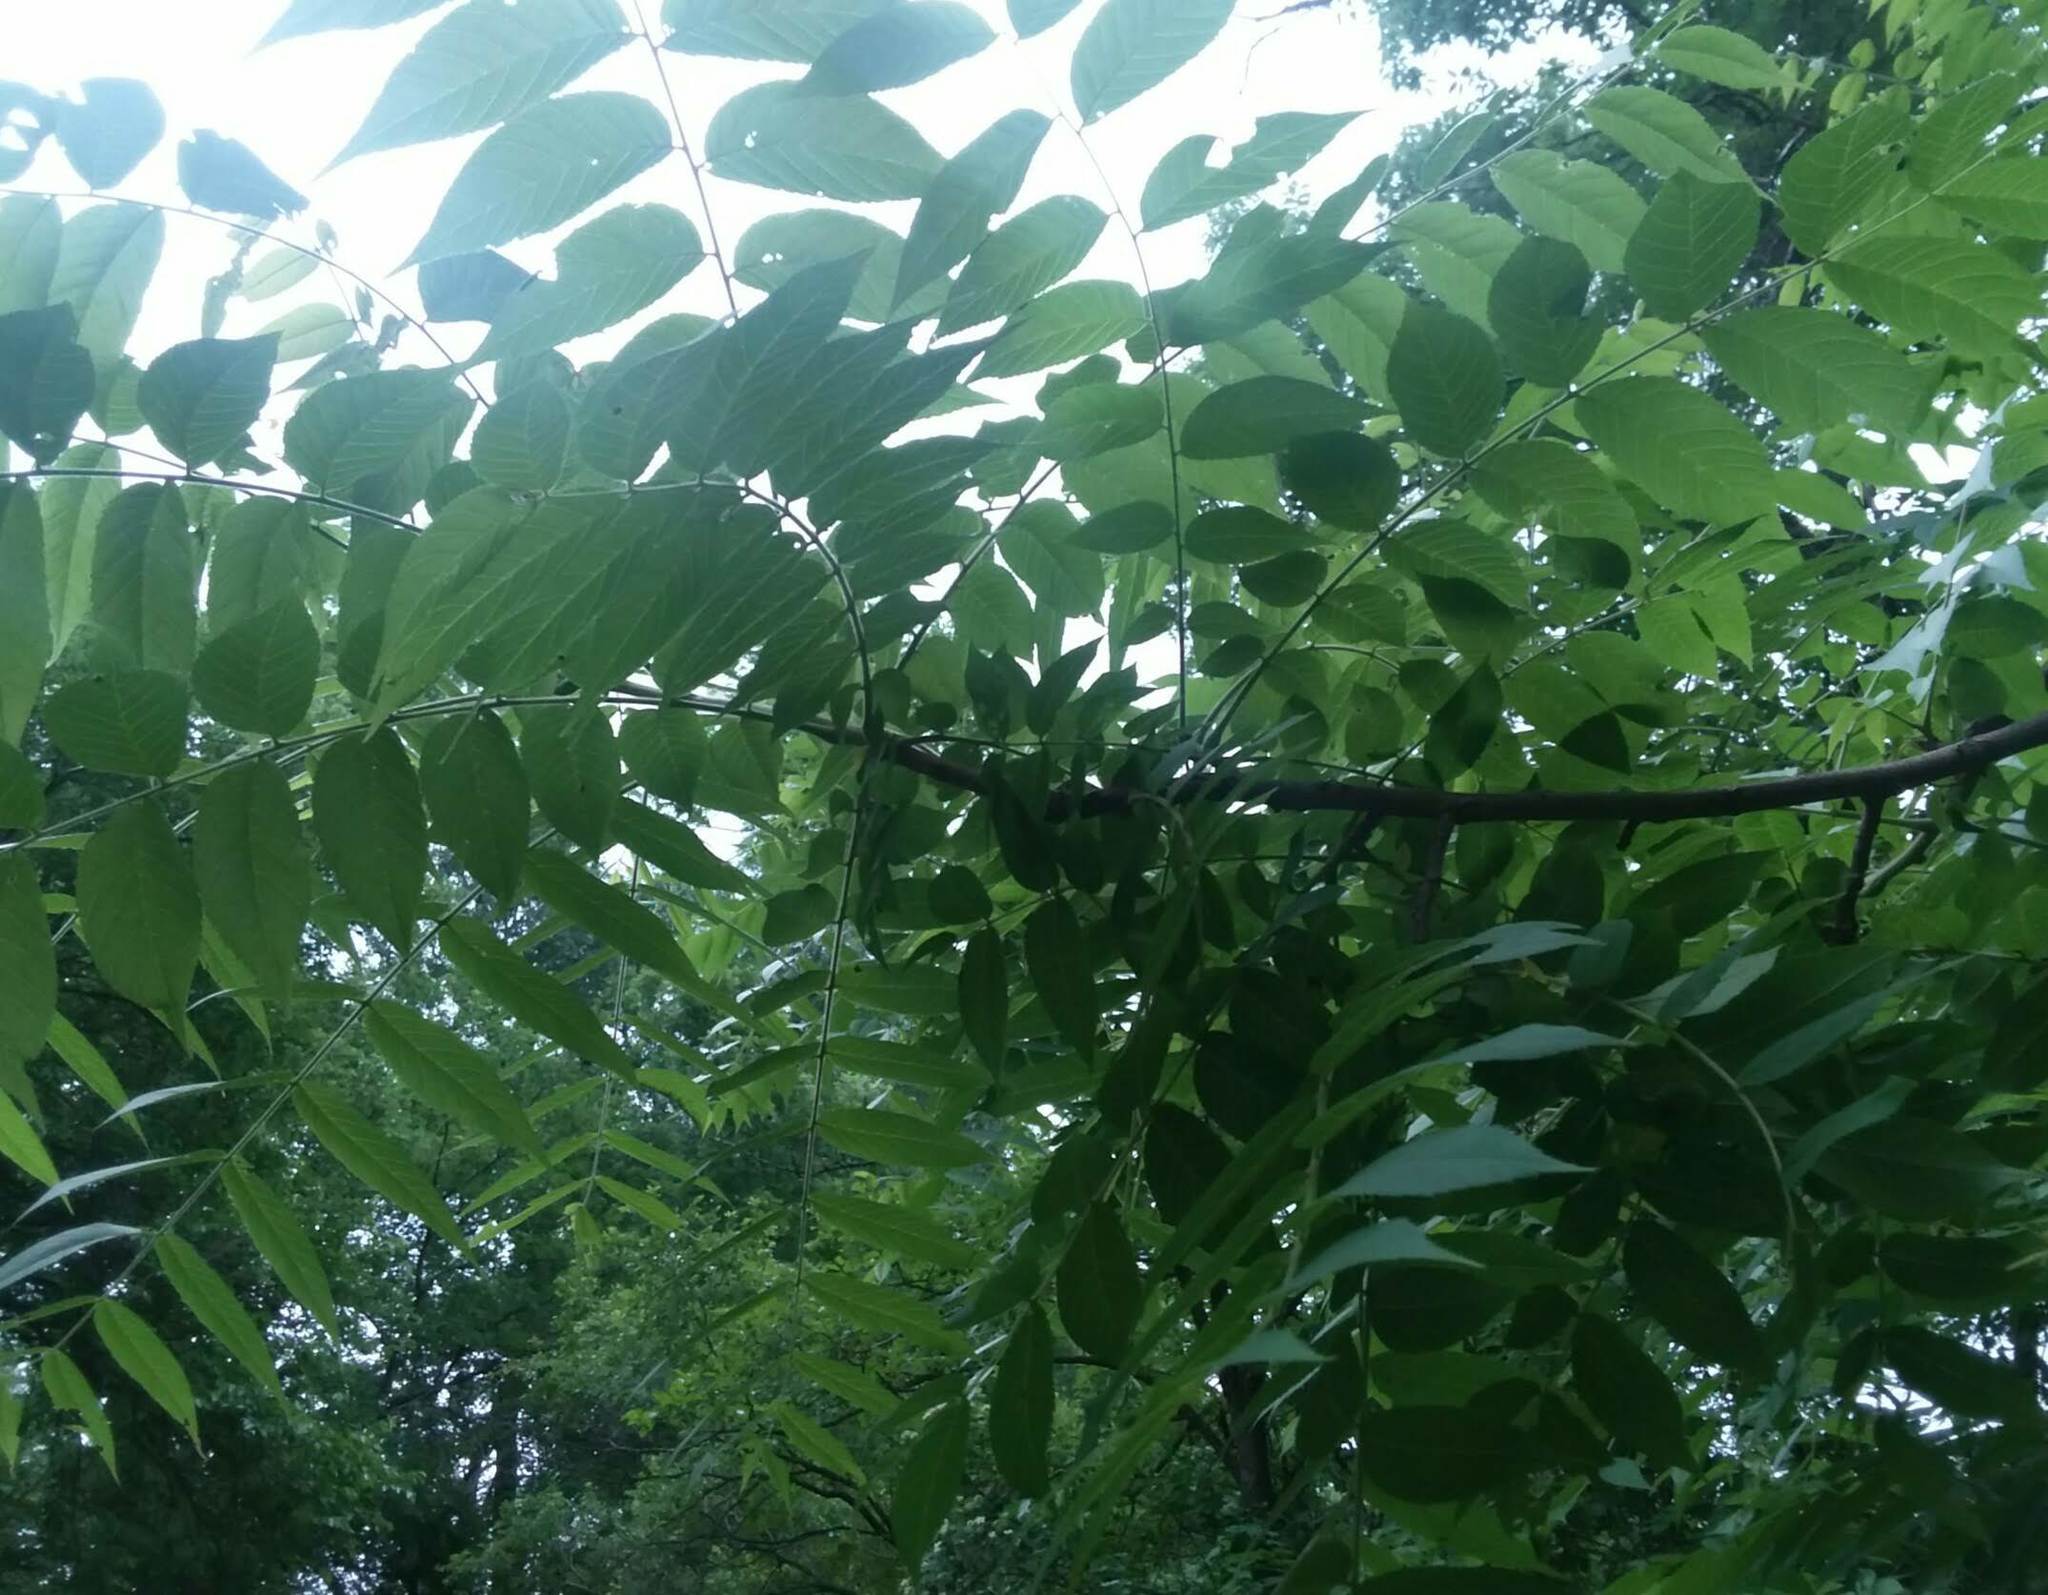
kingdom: Plantae
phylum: Tracheophyta
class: Magnoliopsida
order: Fagales
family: Juglandaceae
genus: Juglans
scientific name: Juglans nigra
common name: Black walnut
